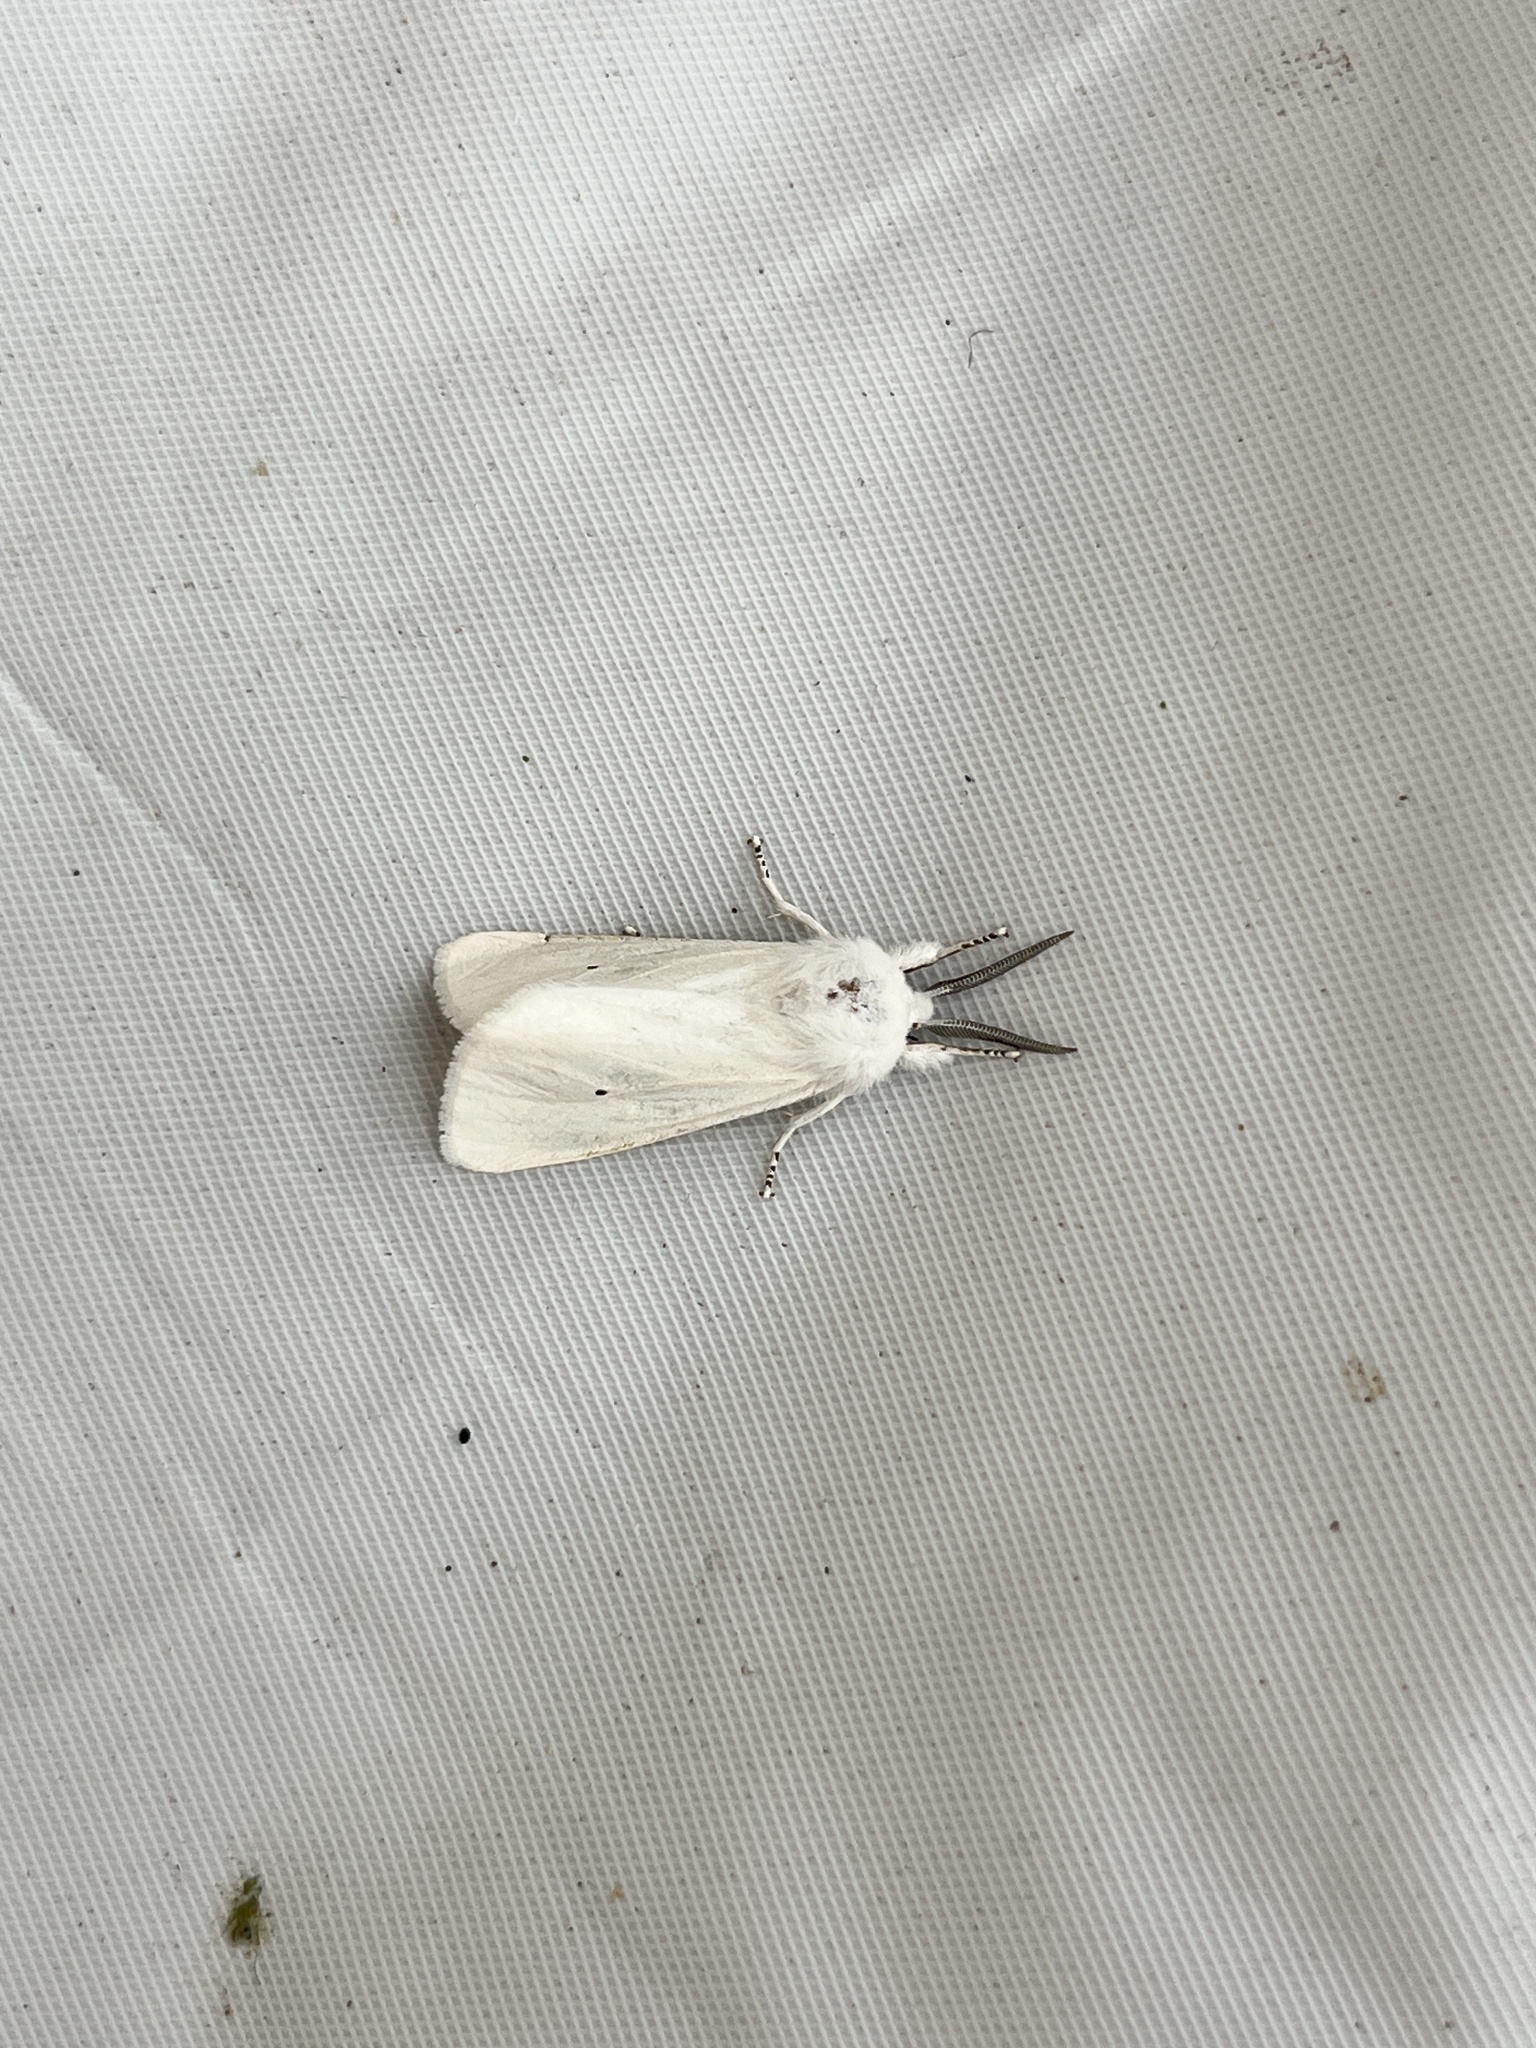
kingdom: Animalia
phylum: Arthropoda
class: Insecta
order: Lepidoptera
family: Erebidae
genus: Spilosoma
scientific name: Spilosoma virginica
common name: Virginia tiger moth
